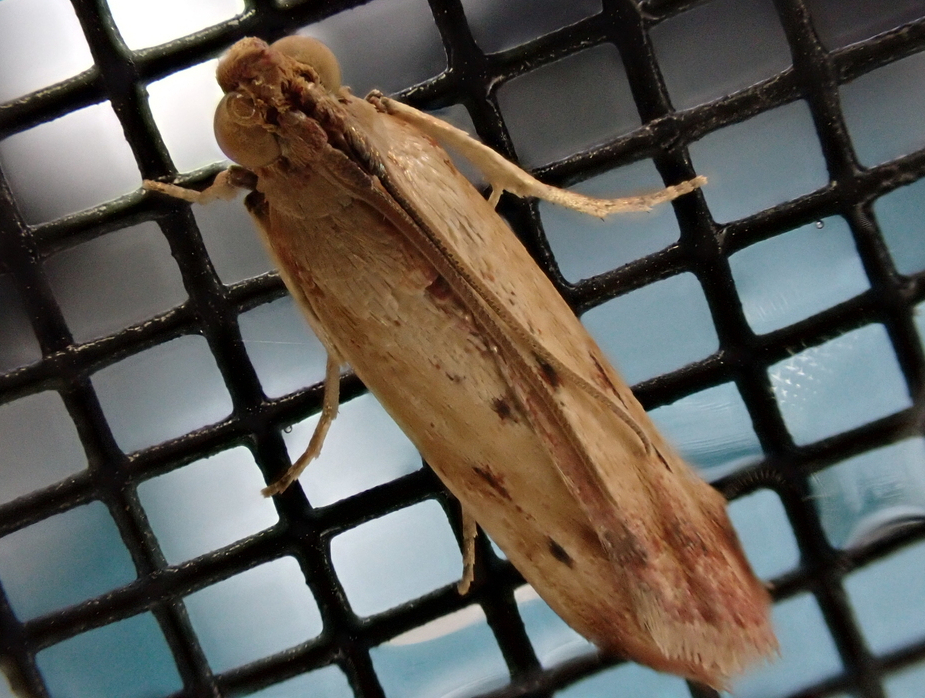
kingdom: Animalia
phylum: Arthropoda
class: Insecta
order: Lepidoptera
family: Pyralidae
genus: Elasmopalpus
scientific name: Elasmopalpus lignosella
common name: Lesser cornstalk borer
